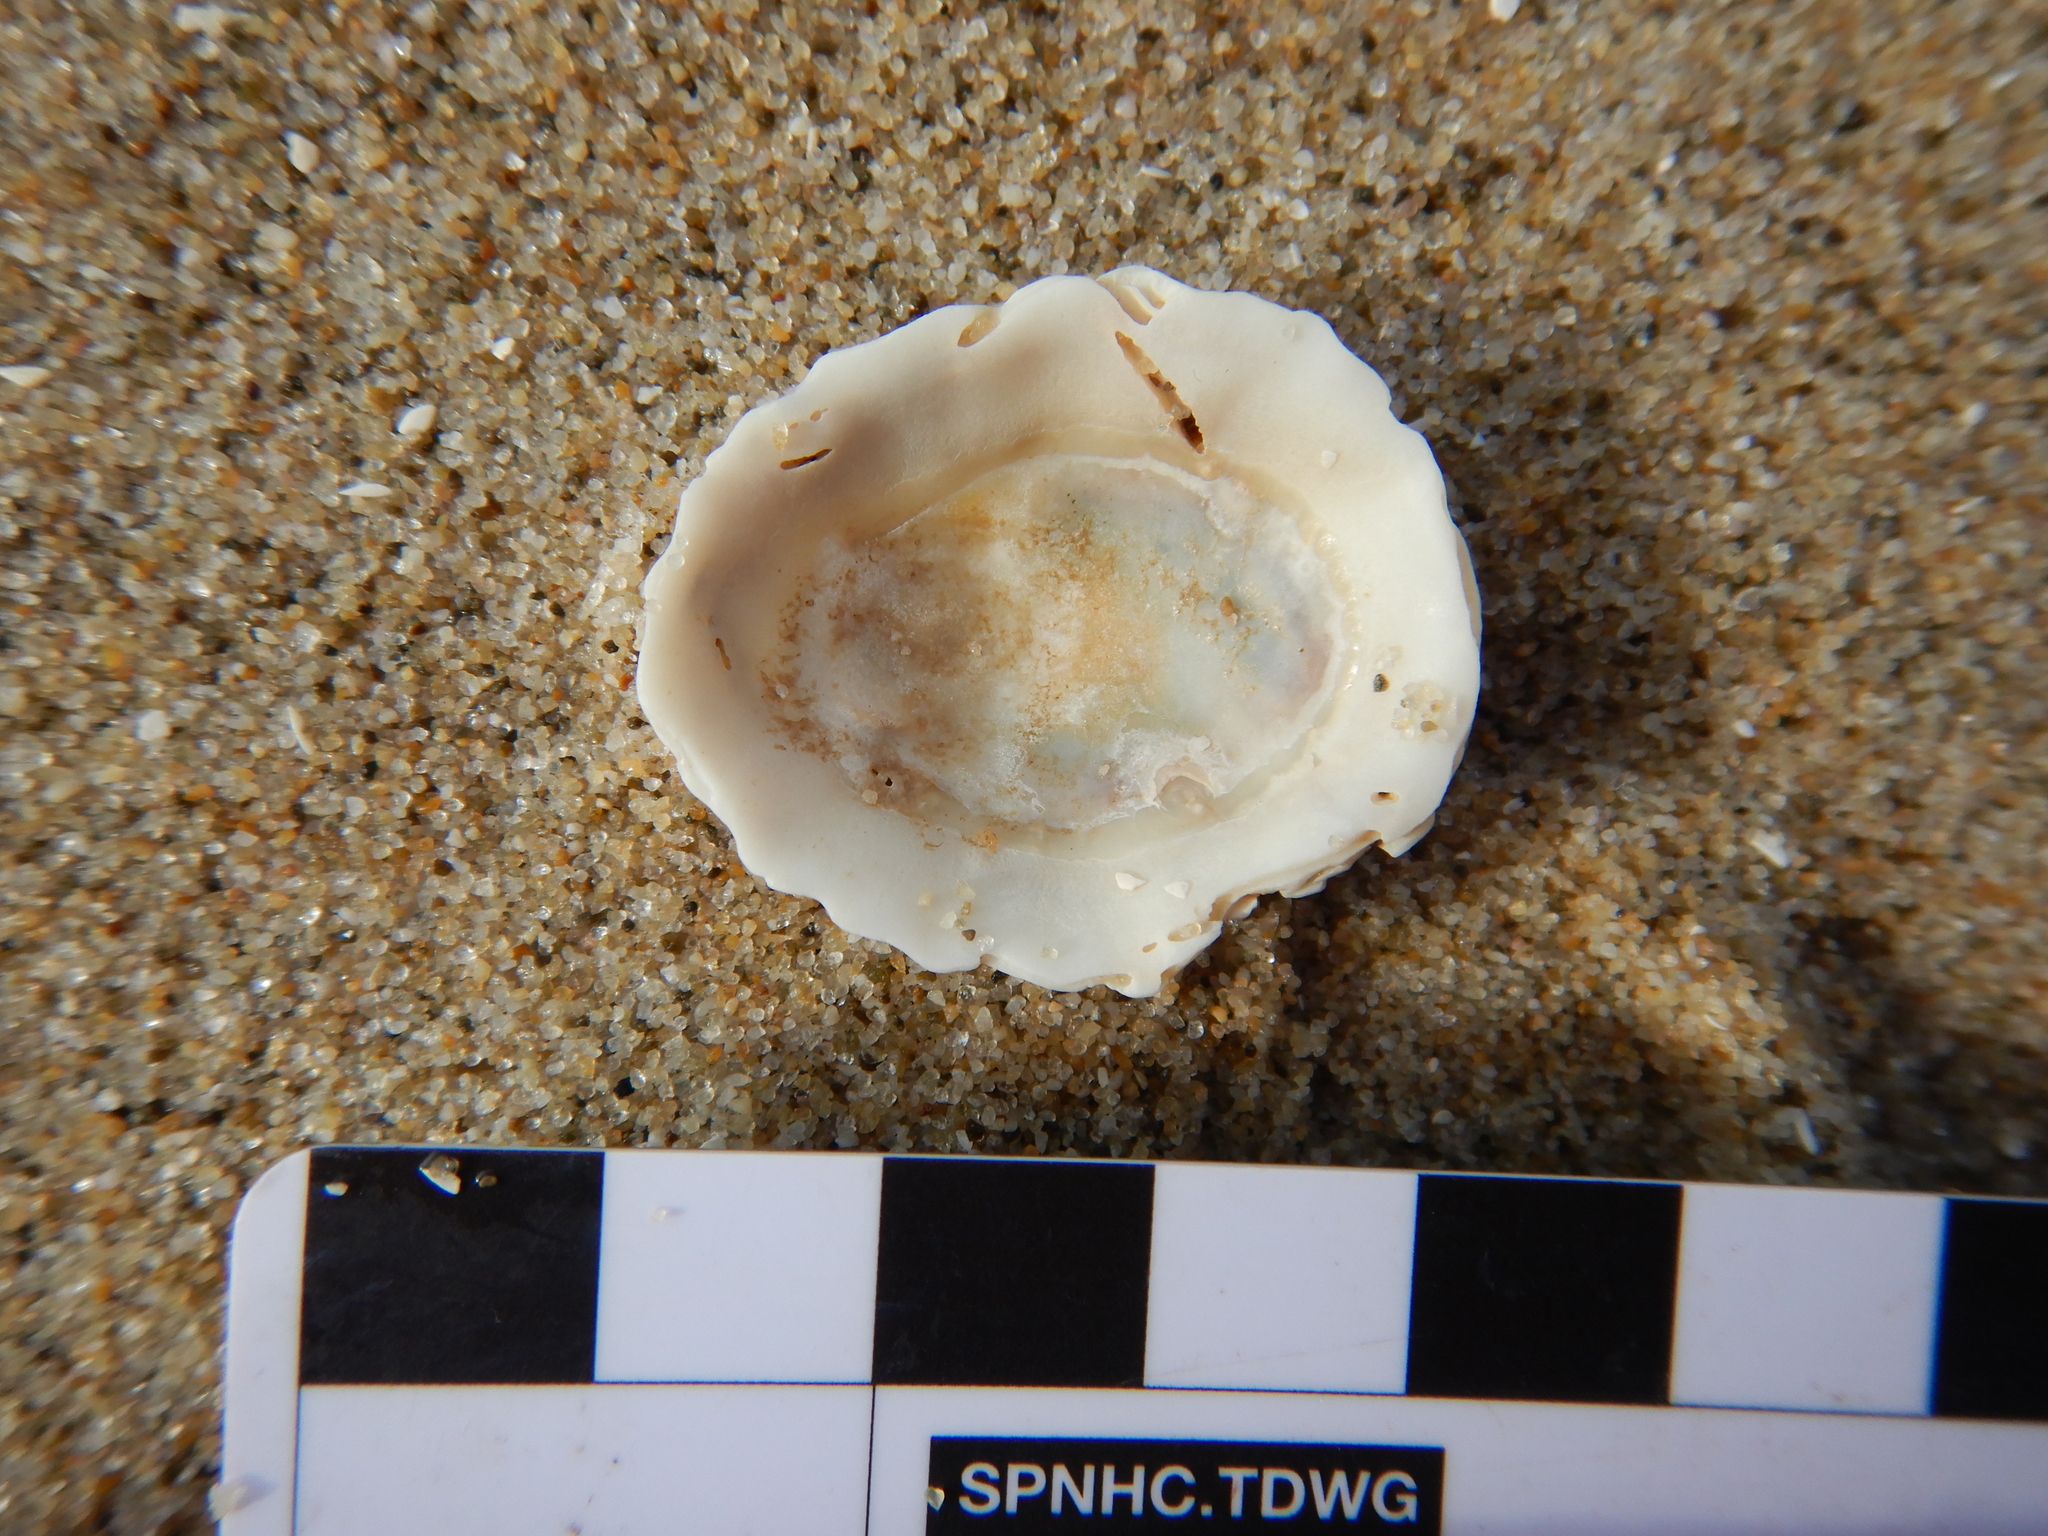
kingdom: Animalia
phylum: Mollusca
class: Gastropoda
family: Lottiidae
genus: Patelloida
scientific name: Patelloida alticostata
